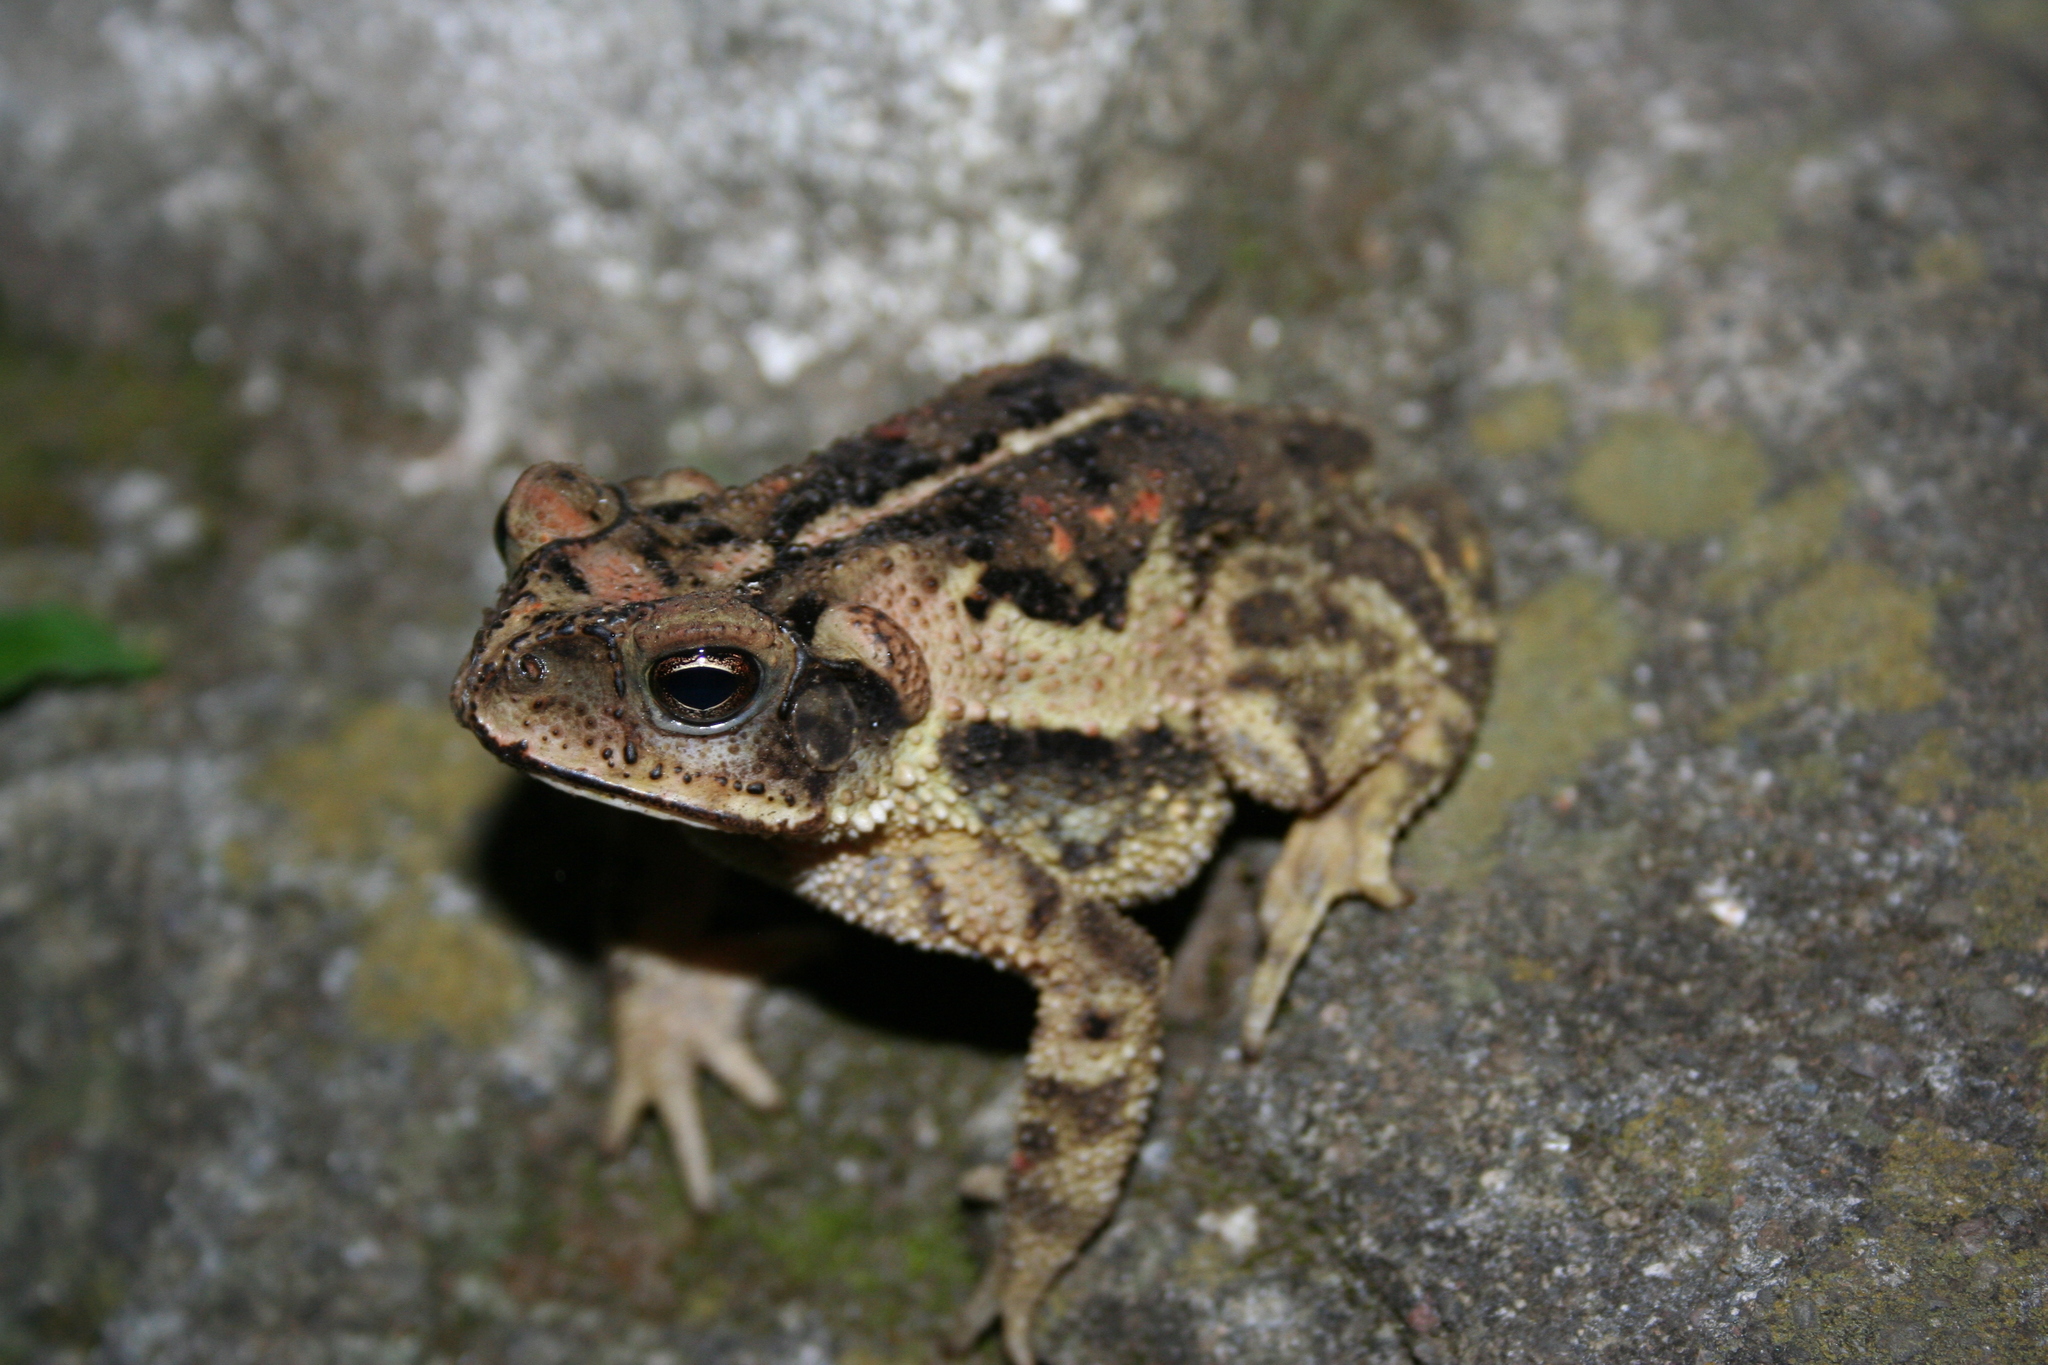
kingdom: Animalia
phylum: Chordata
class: Amphibia
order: Anura
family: Bufonidae
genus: Incilius
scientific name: Incilius luetkenii
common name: Yellow toad
